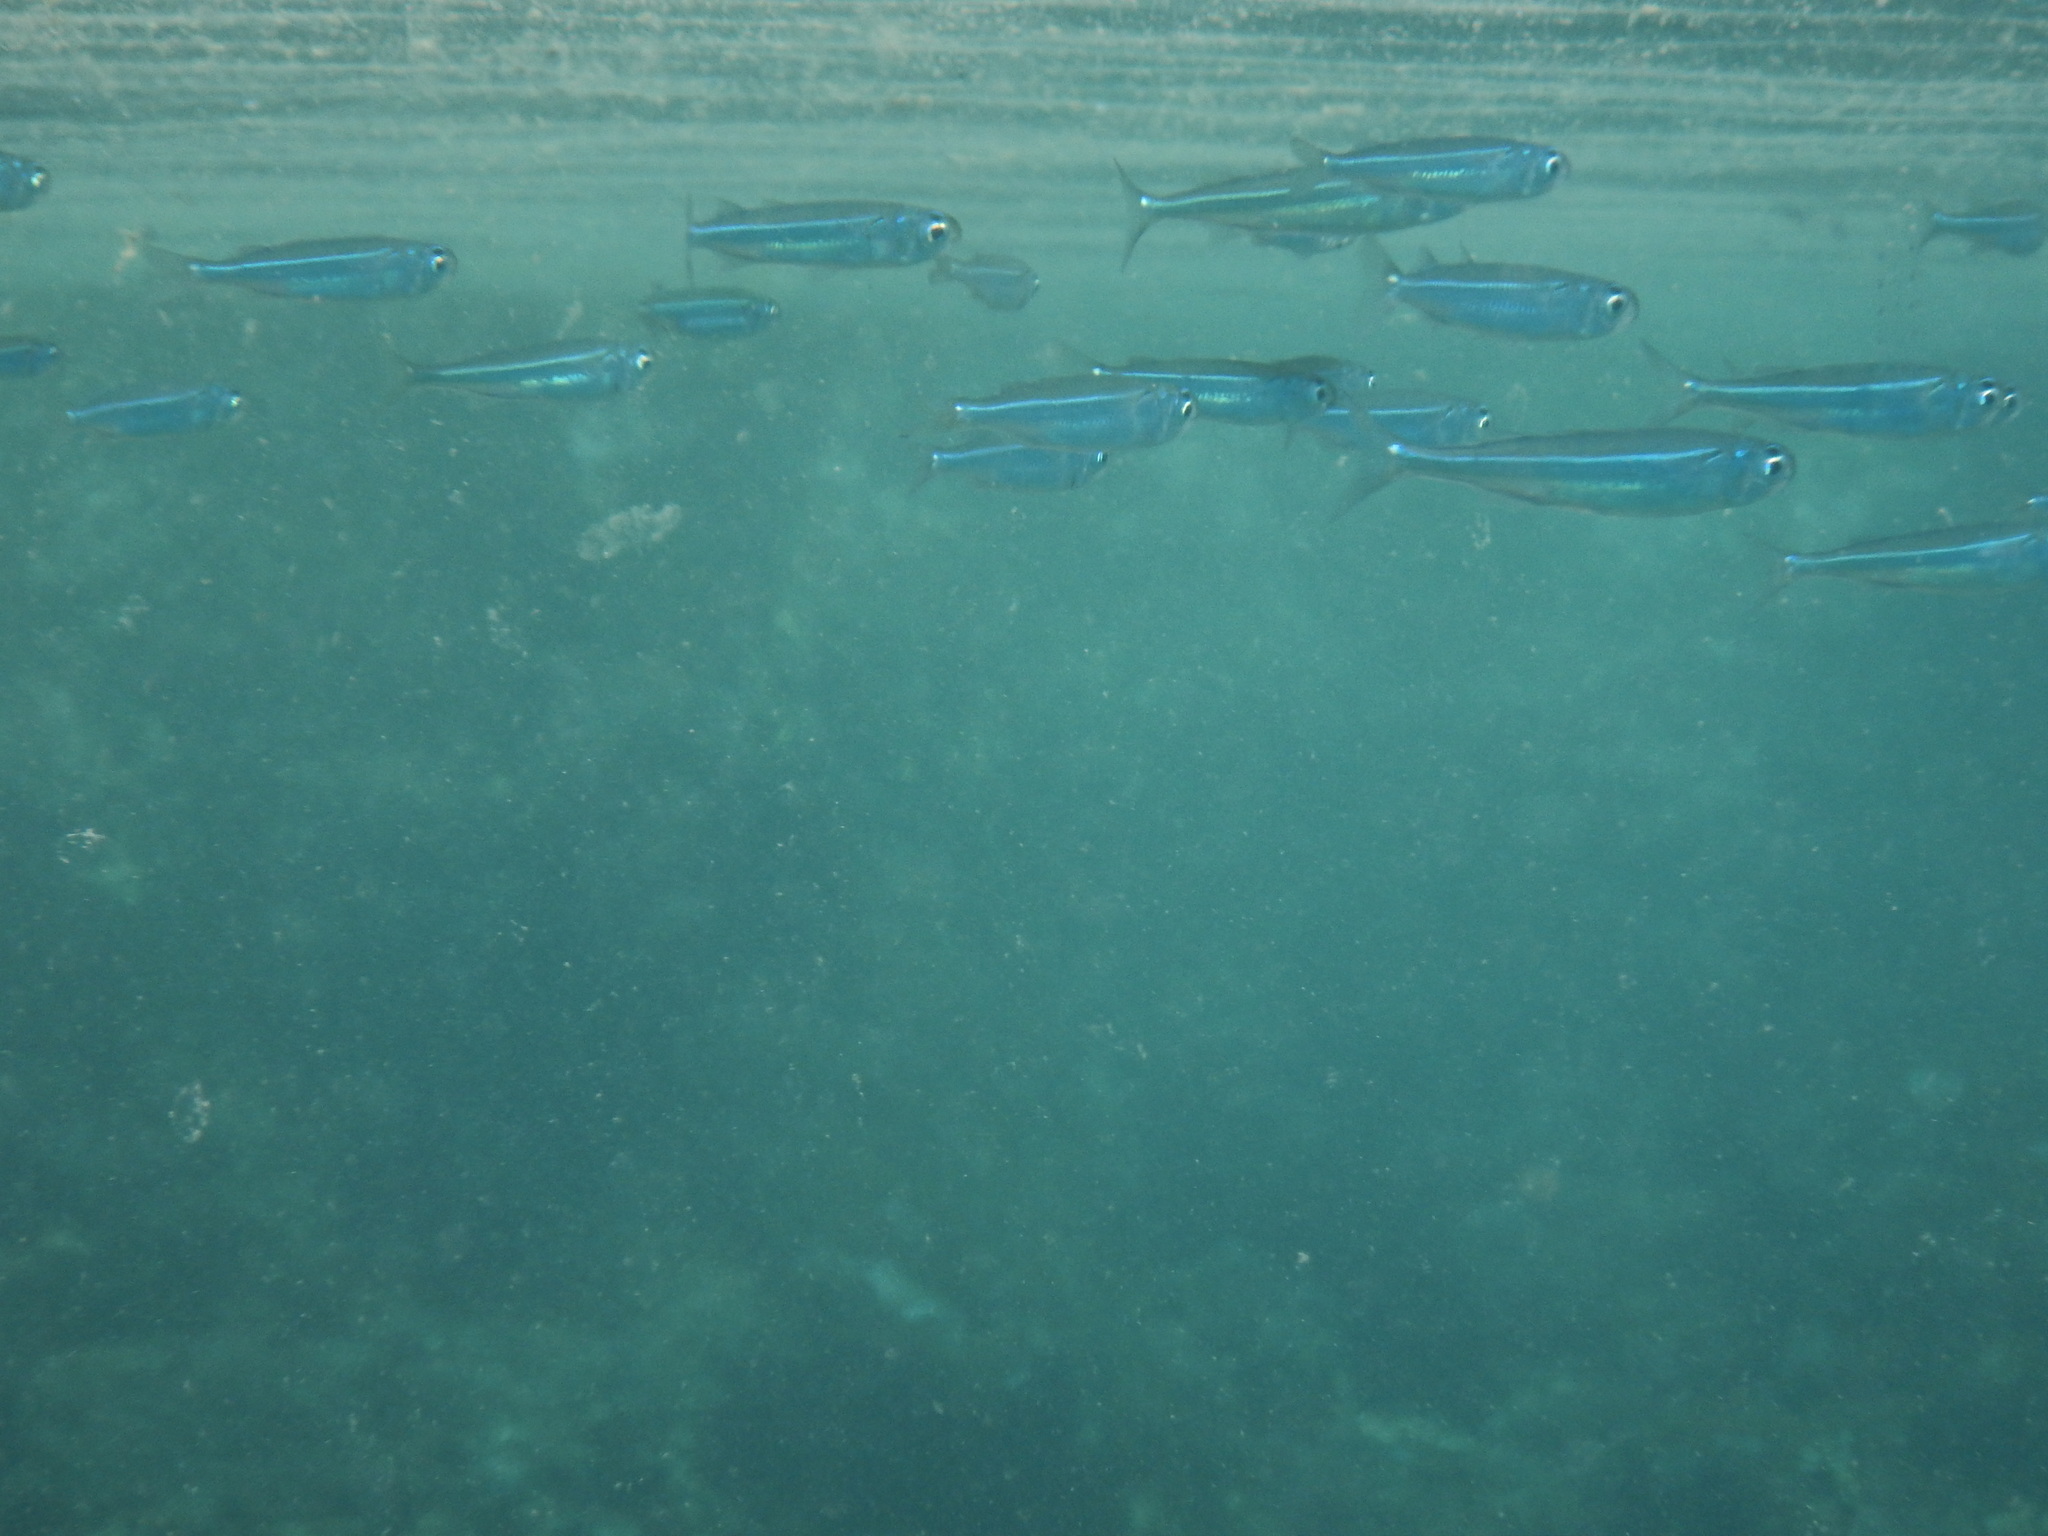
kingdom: Animalia
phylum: Chordata
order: Atheriniformes
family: Atherinidae
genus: Atherinomorus
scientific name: Atherinomorus forskalii
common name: Red sea hardyhead silverside
